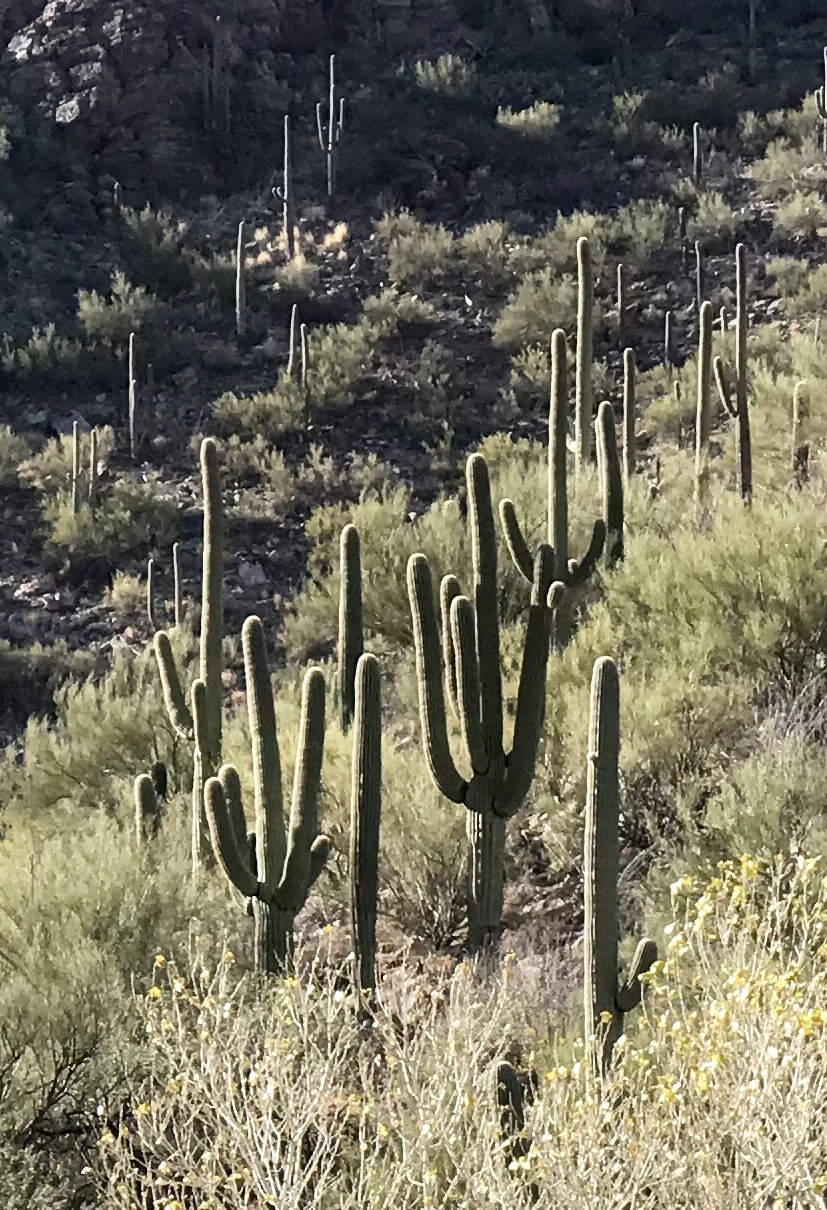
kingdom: Plantae
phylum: Tracheophyta
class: Magnoliopsida
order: Caryophyllales
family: Cactaceae
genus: Carnegiea
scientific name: Carnegiea gigantea
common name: Saguaro
